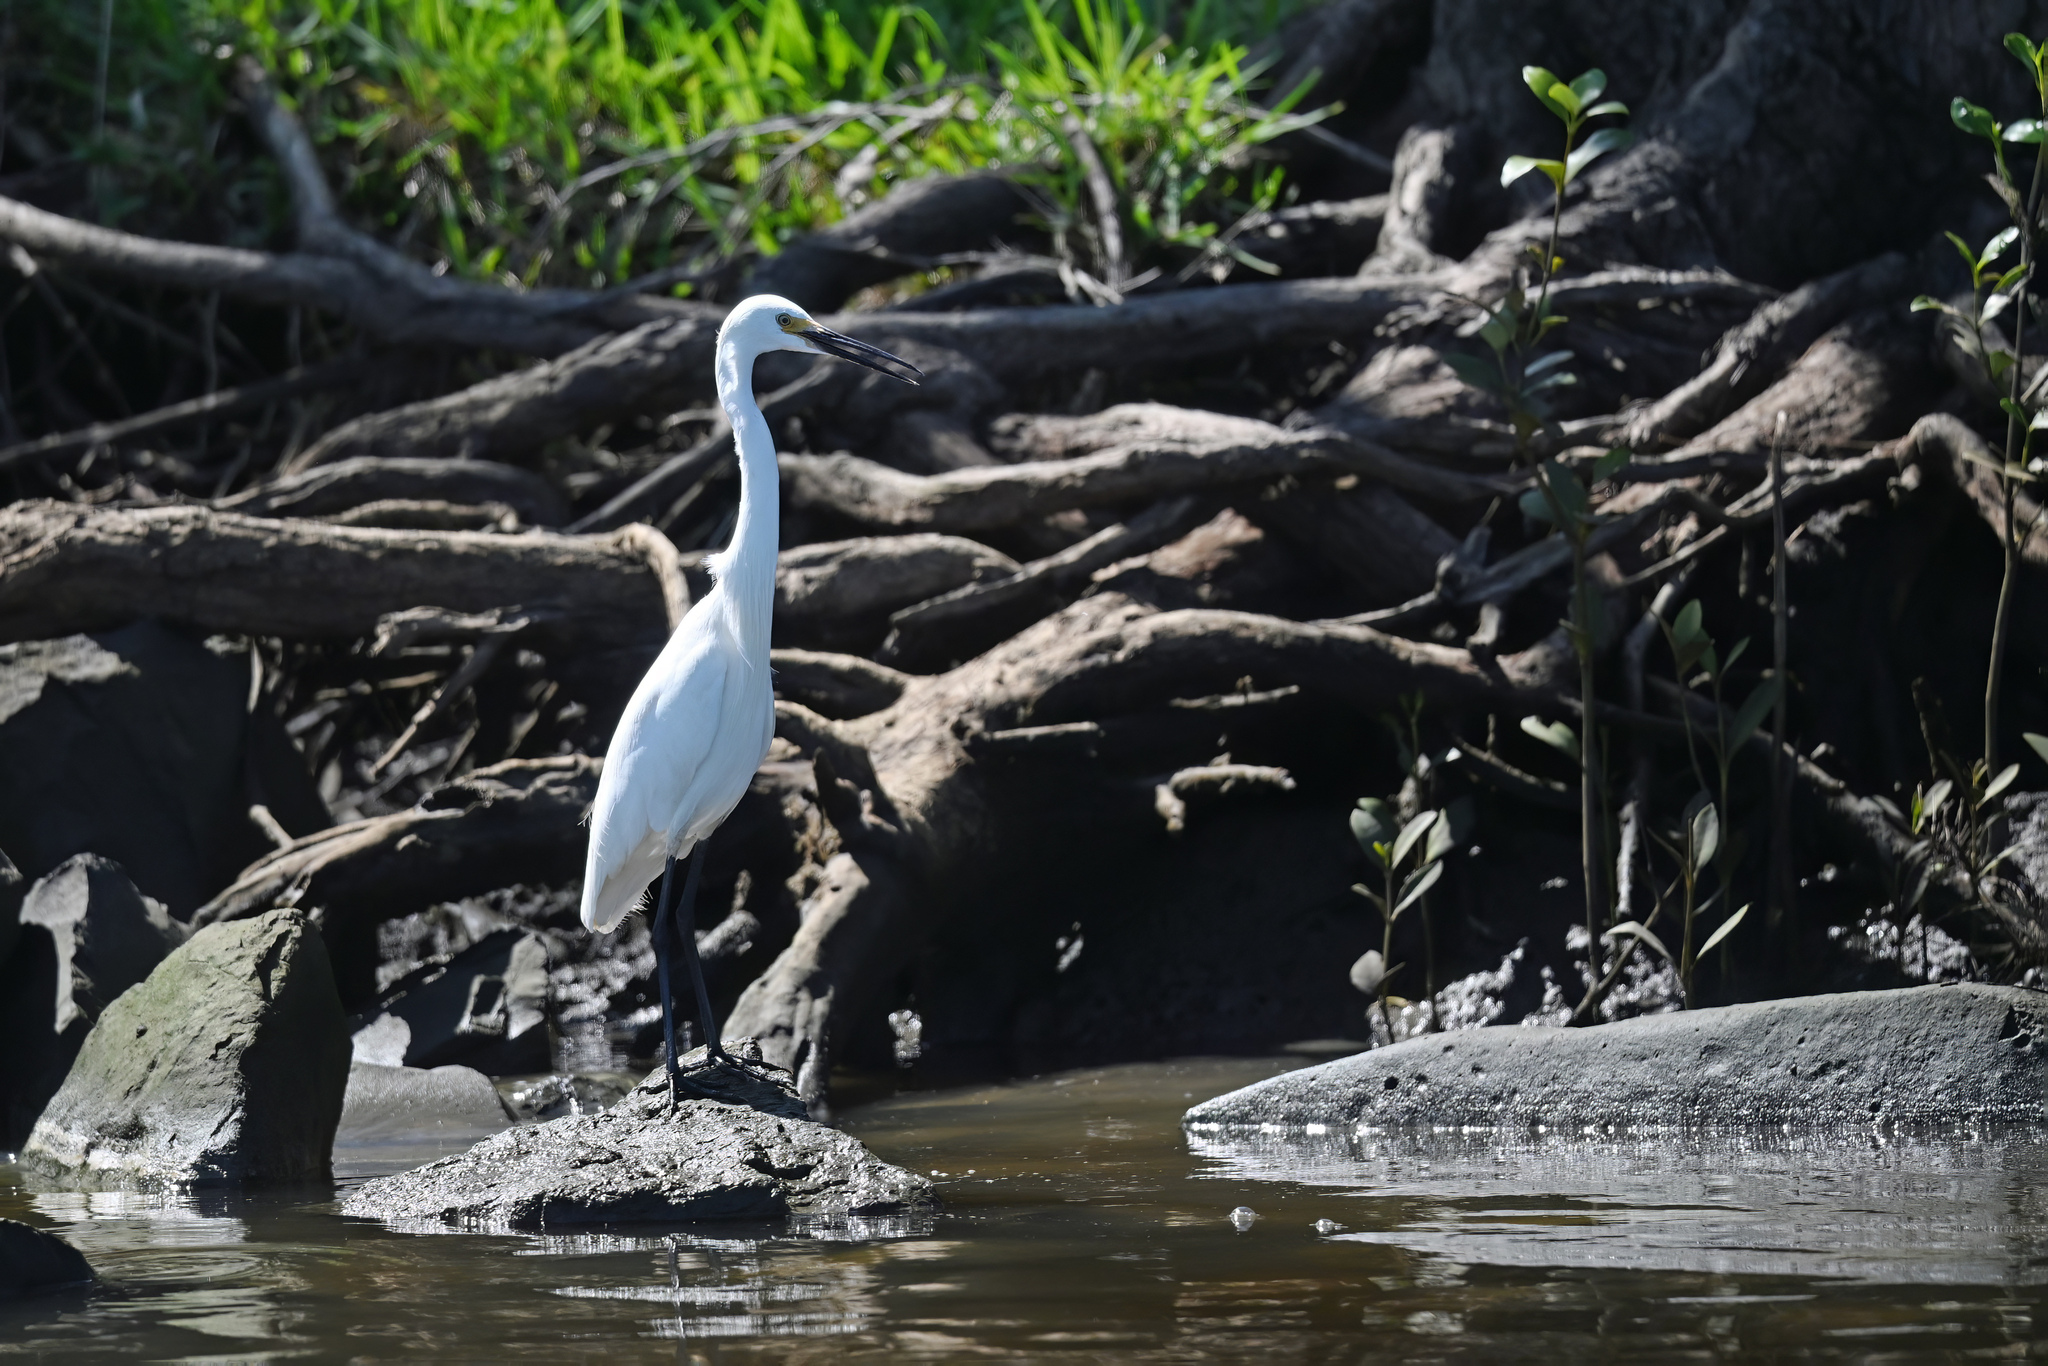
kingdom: Animalia
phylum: Chordata
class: Aves
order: Pelecaniformes
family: Ardeidae
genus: Egretta
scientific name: Egretta garzetta
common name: Little egret
